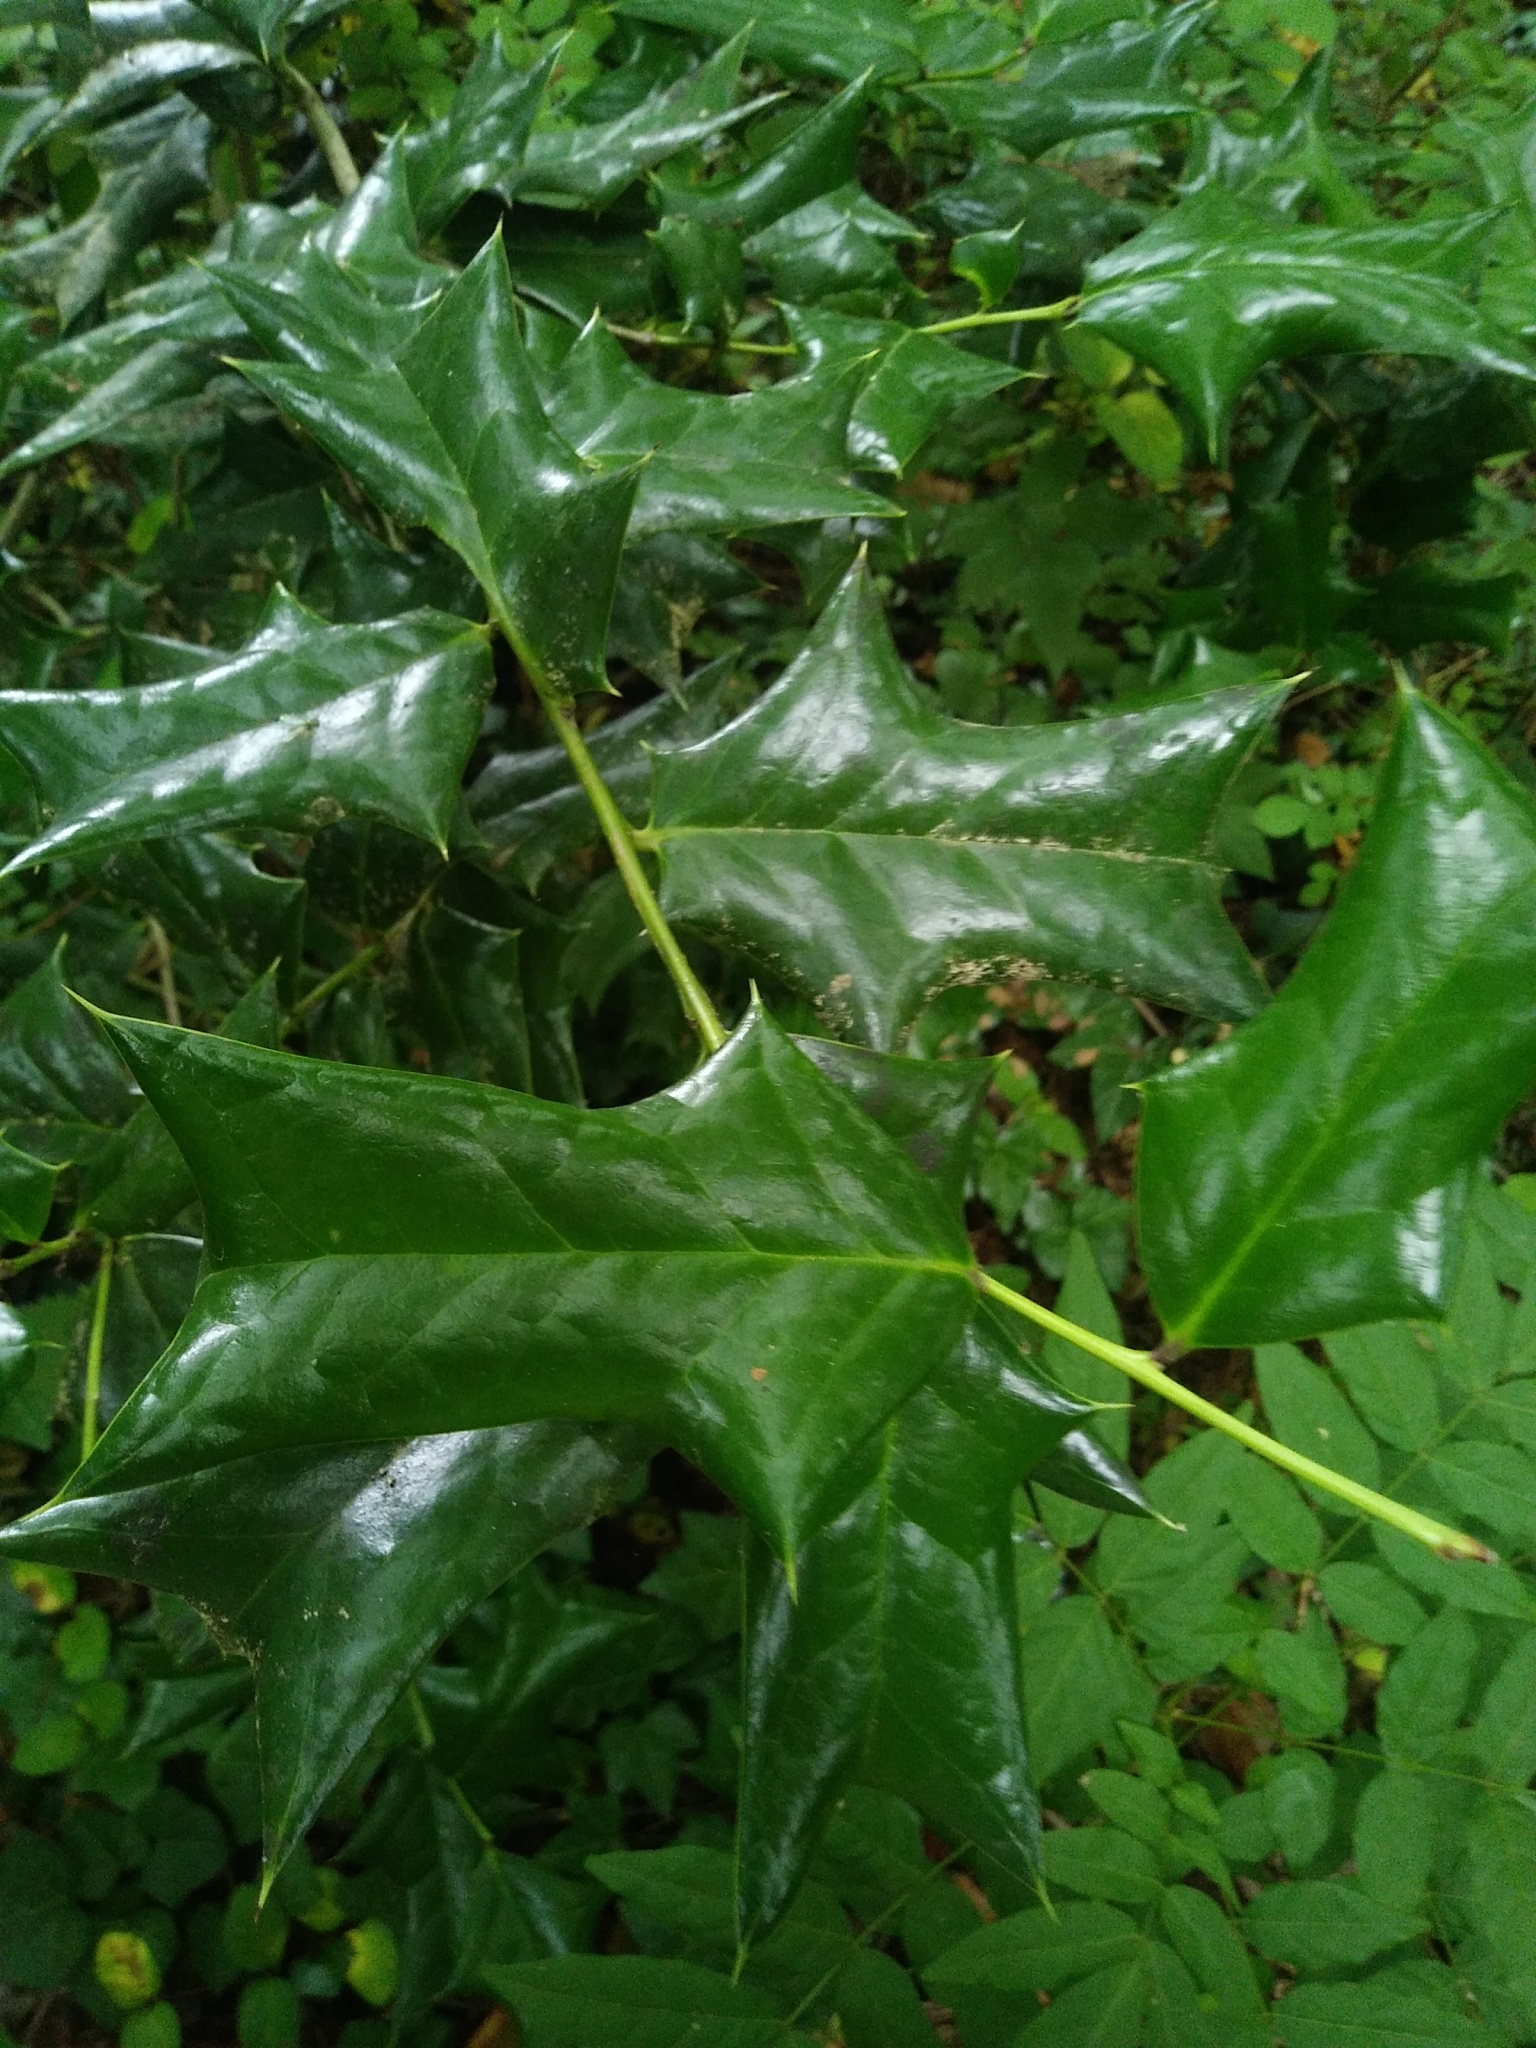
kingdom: Plantae
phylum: Tracheophyta
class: Magnoliopsida
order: Aquifoliales
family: Aquifoliaceae
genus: Ilex
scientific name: Ilex cornuta
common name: Chinese holly
